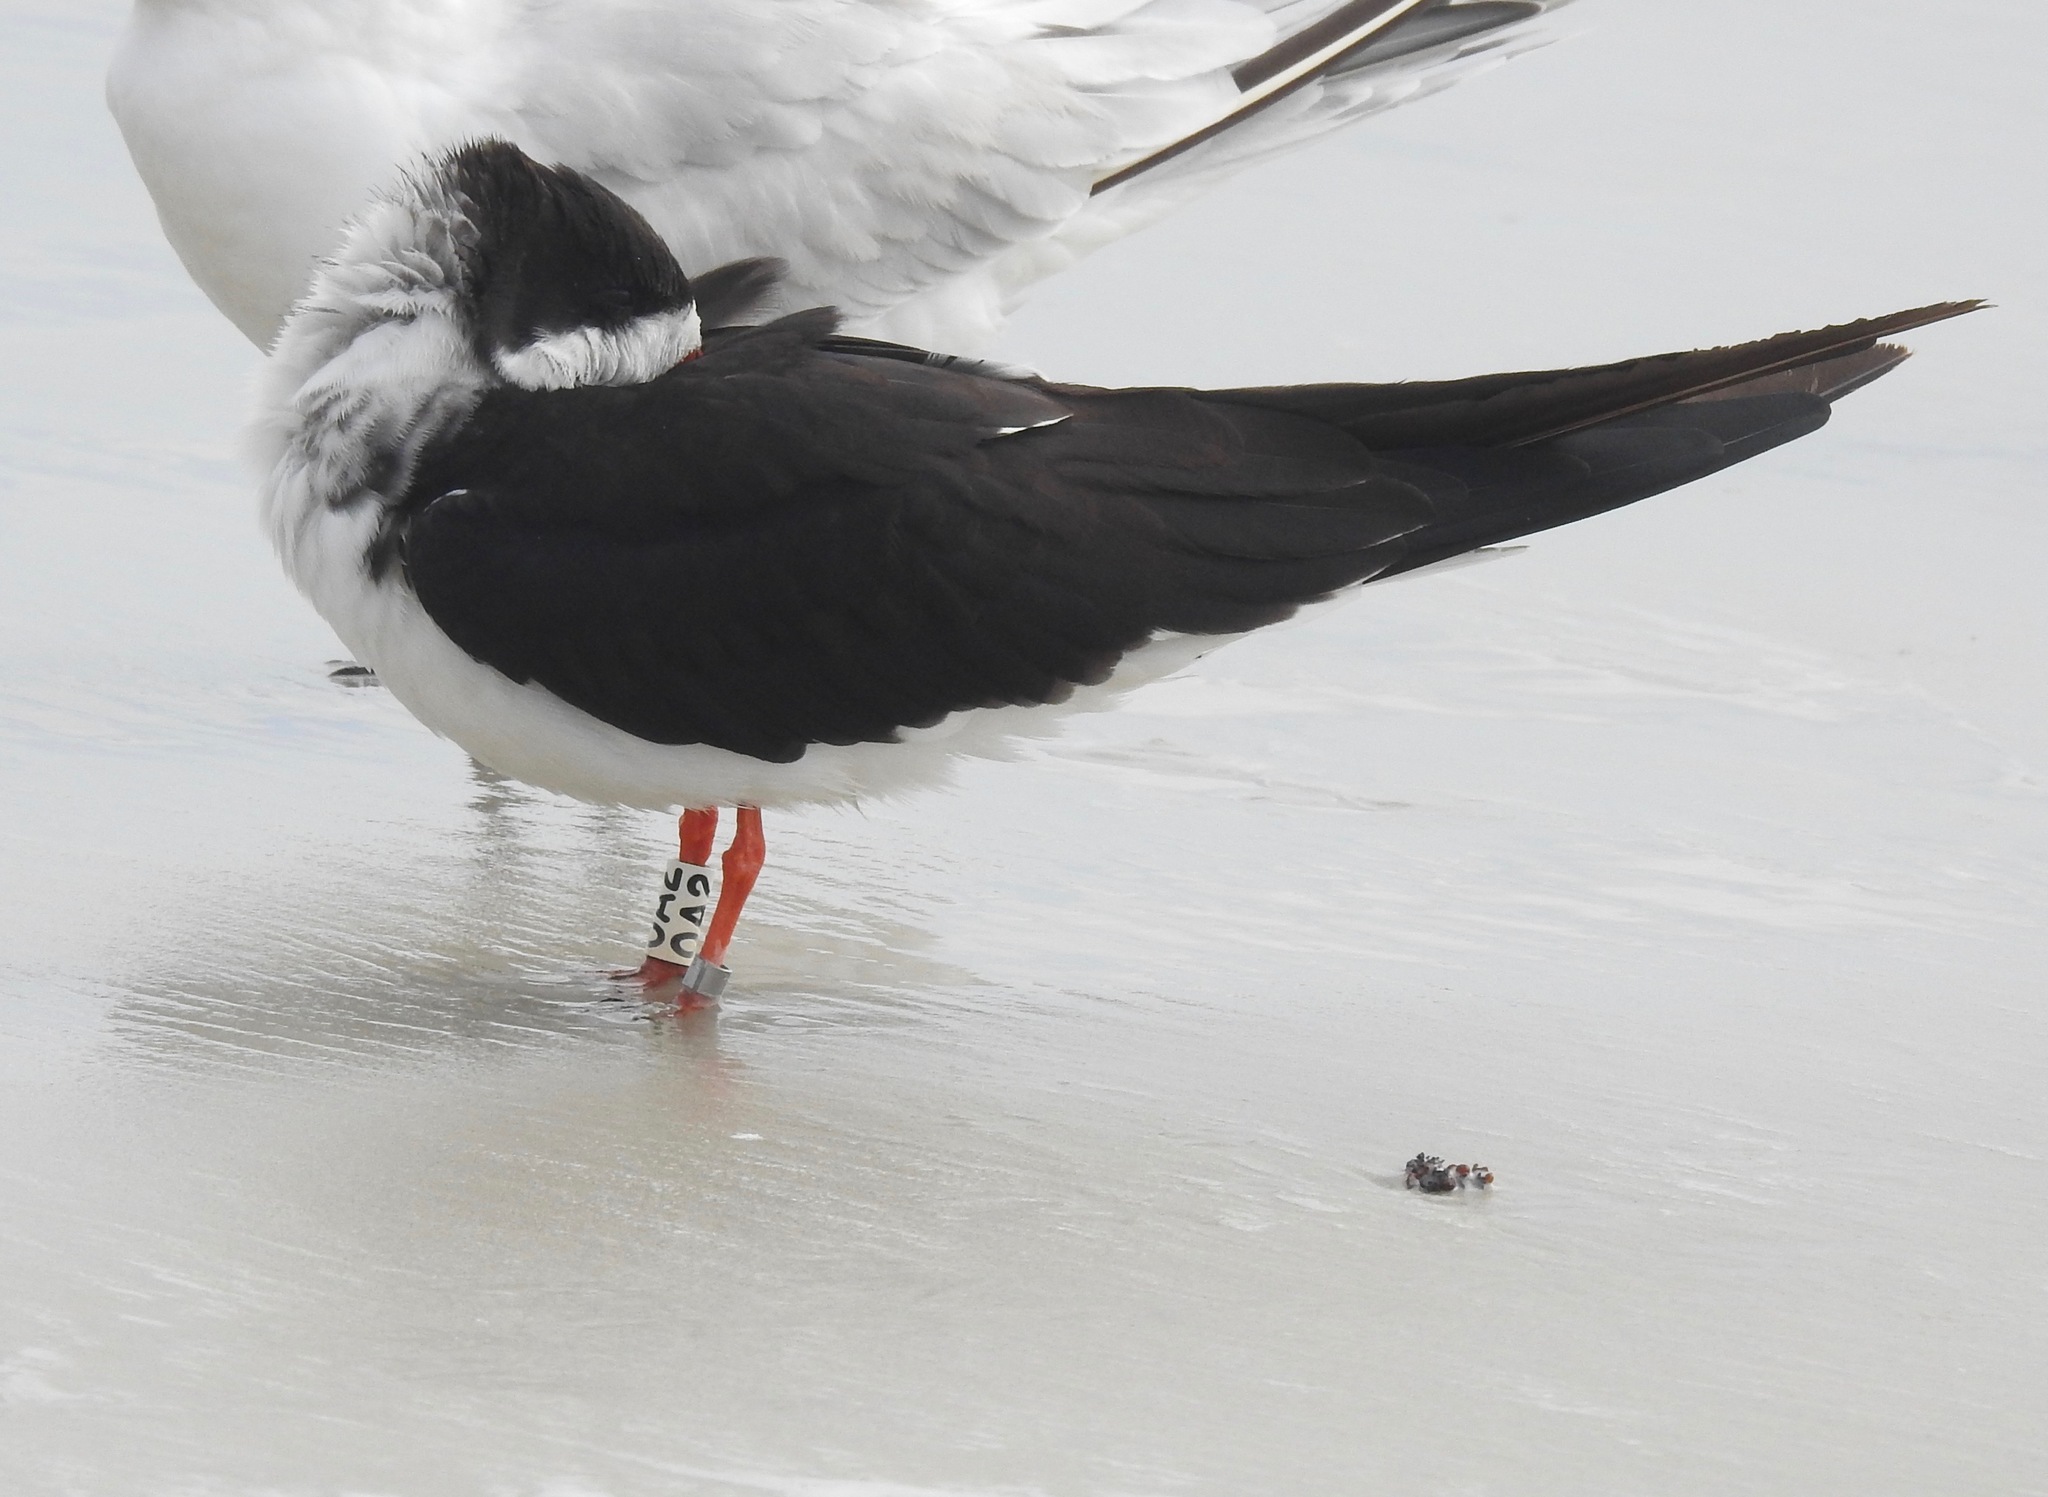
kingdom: Animalia
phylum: Chordata
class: Aves
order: Charadriiformes
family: Laridae
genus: Rynchops
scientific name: Rynchops niger
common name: Black skimmer
